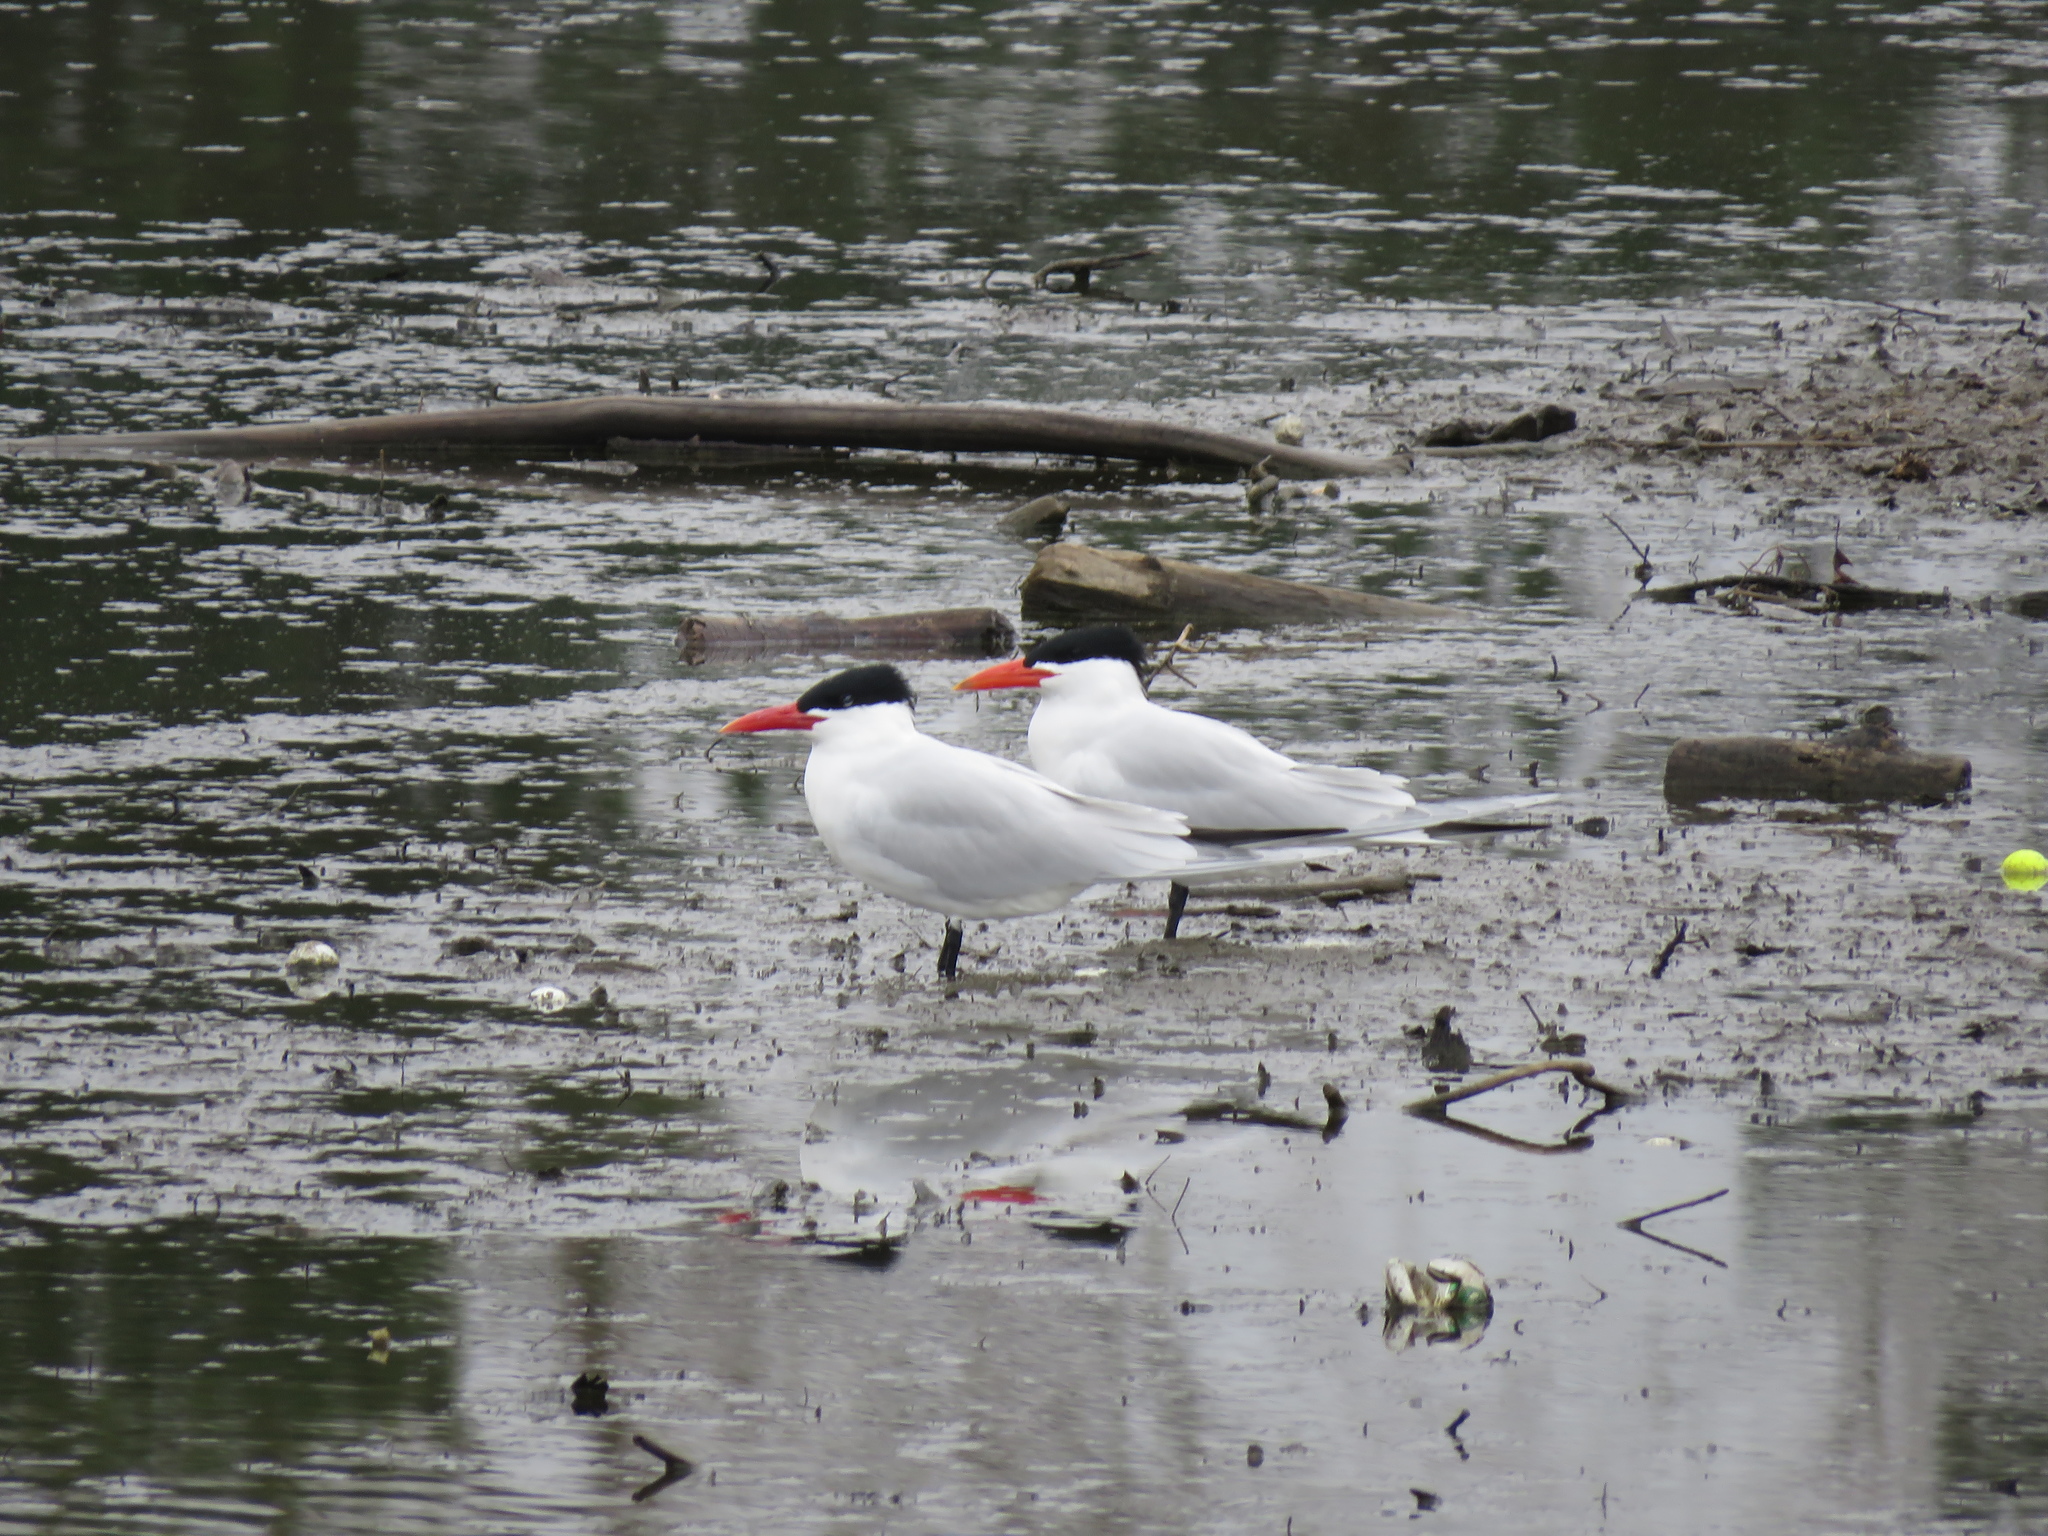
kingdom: Animalia
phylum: Chordata
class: Aves
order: Charadriiformes
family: Laridae
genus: Hydroprogne
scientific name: Hydroprogne caspia
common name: Caspian tern
